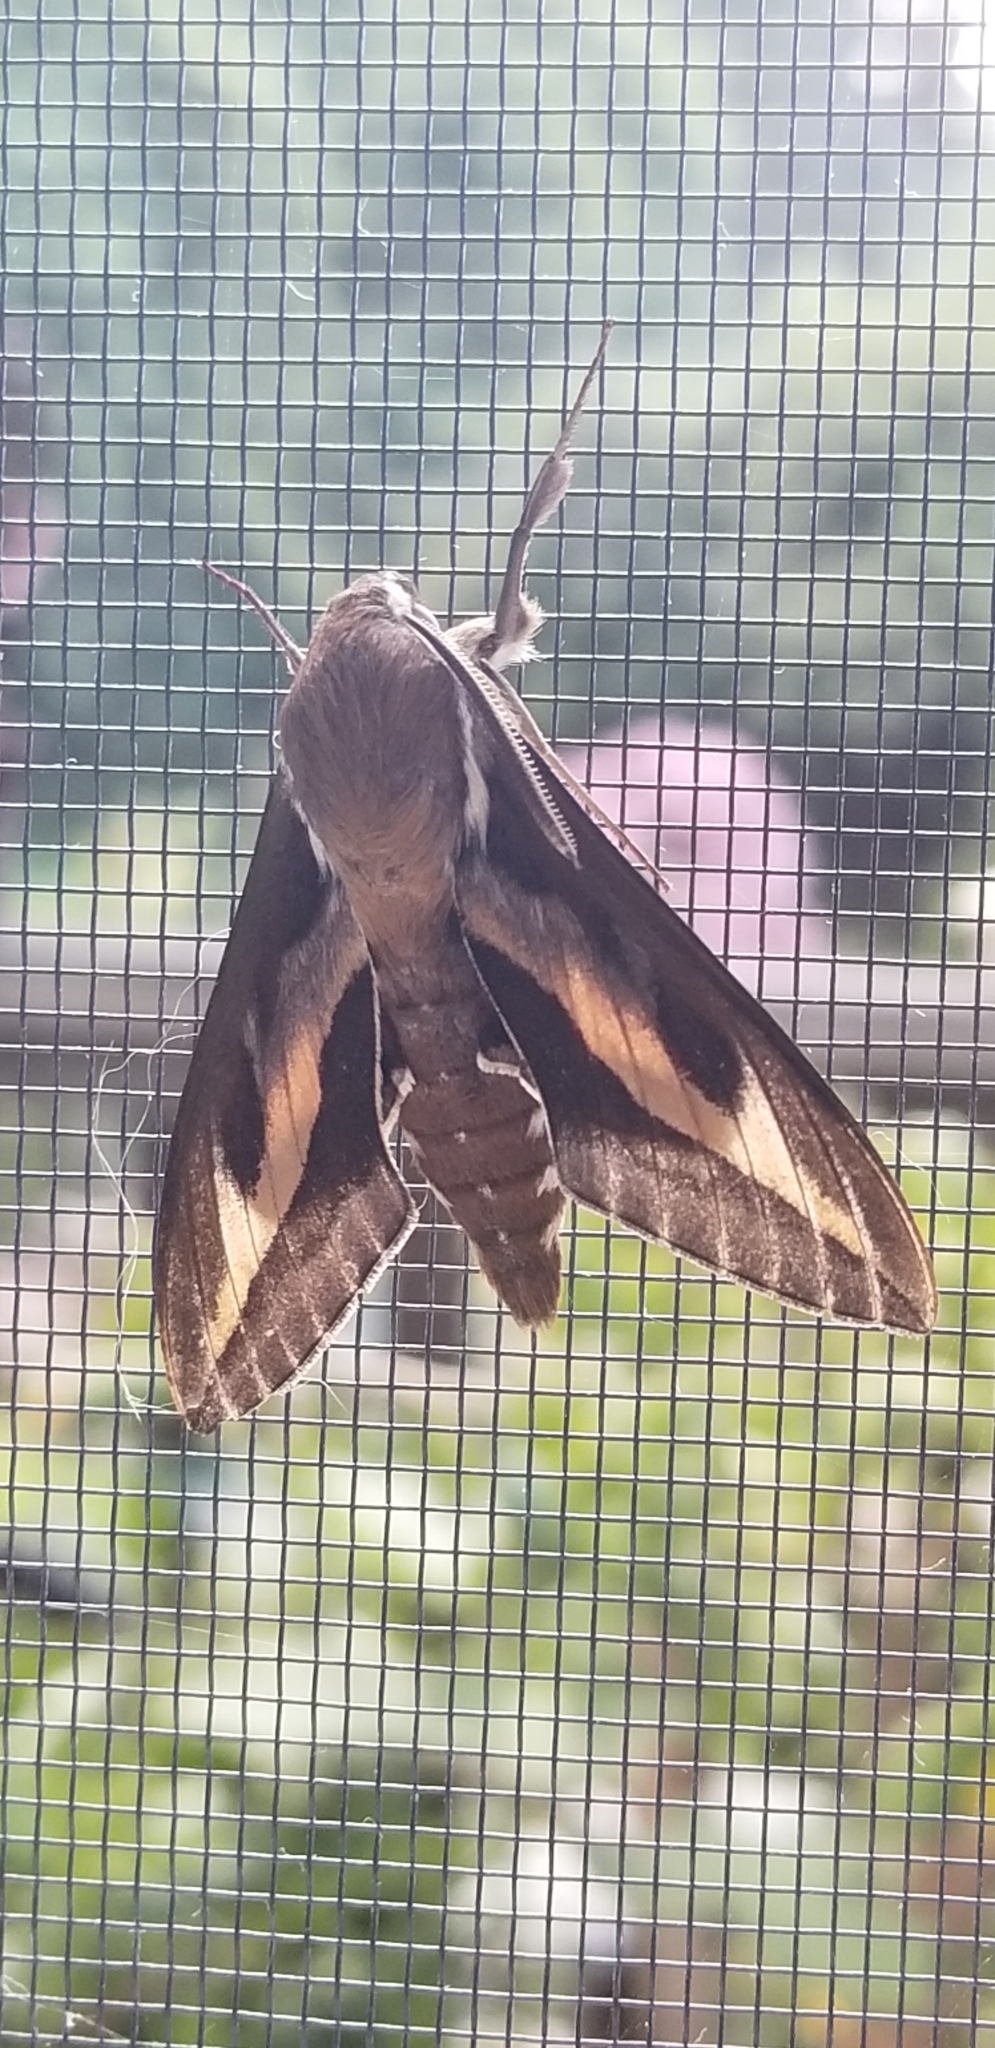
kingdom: Animalia
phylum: Arthropoda
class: Insecta
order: Lepidoptera
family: Sphingidae
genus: Hyles
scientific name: Hyles gallii
